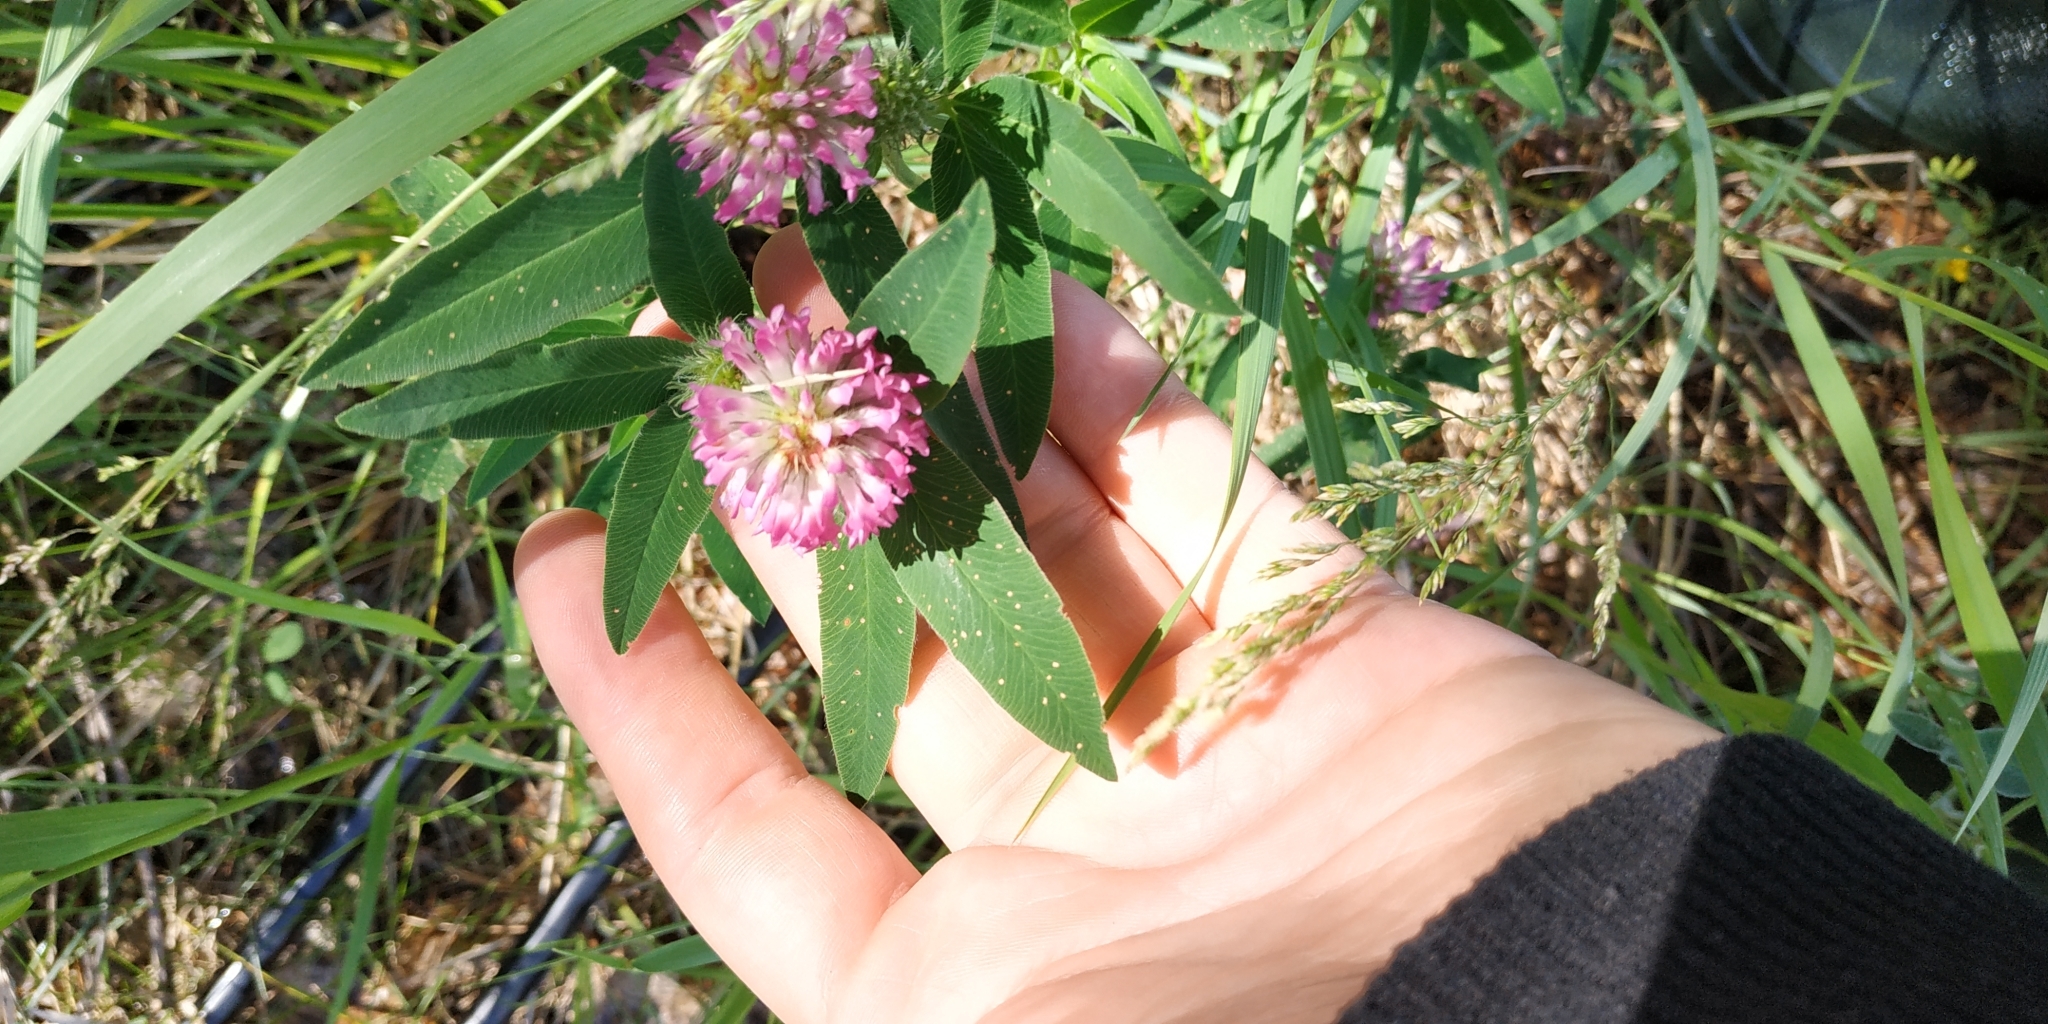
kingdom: Plantae
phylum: Tracheophyta
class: Magnoliopsida
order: Fabales
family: Fabaceae
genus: Trifolium
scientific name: Trifolium medium
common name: Zigzag clover
